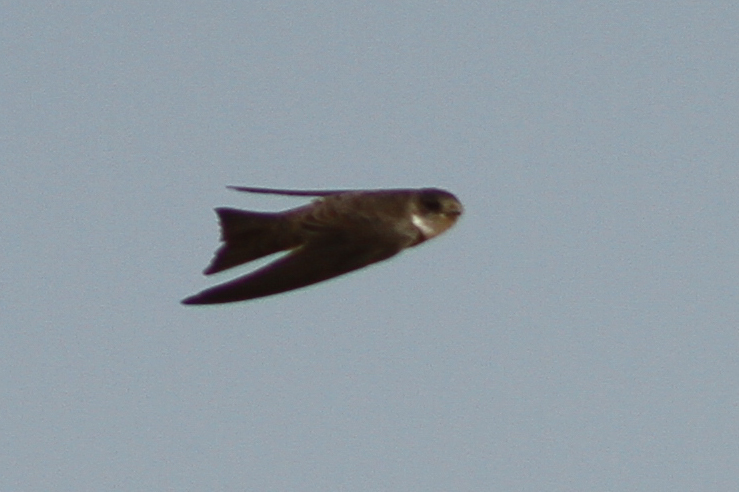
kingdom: Animalia
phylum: Chordata
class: Aves
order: Passeriformes
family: Hirundinidae
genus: Riparia
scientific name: Riparia riparia
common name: Sand martin
